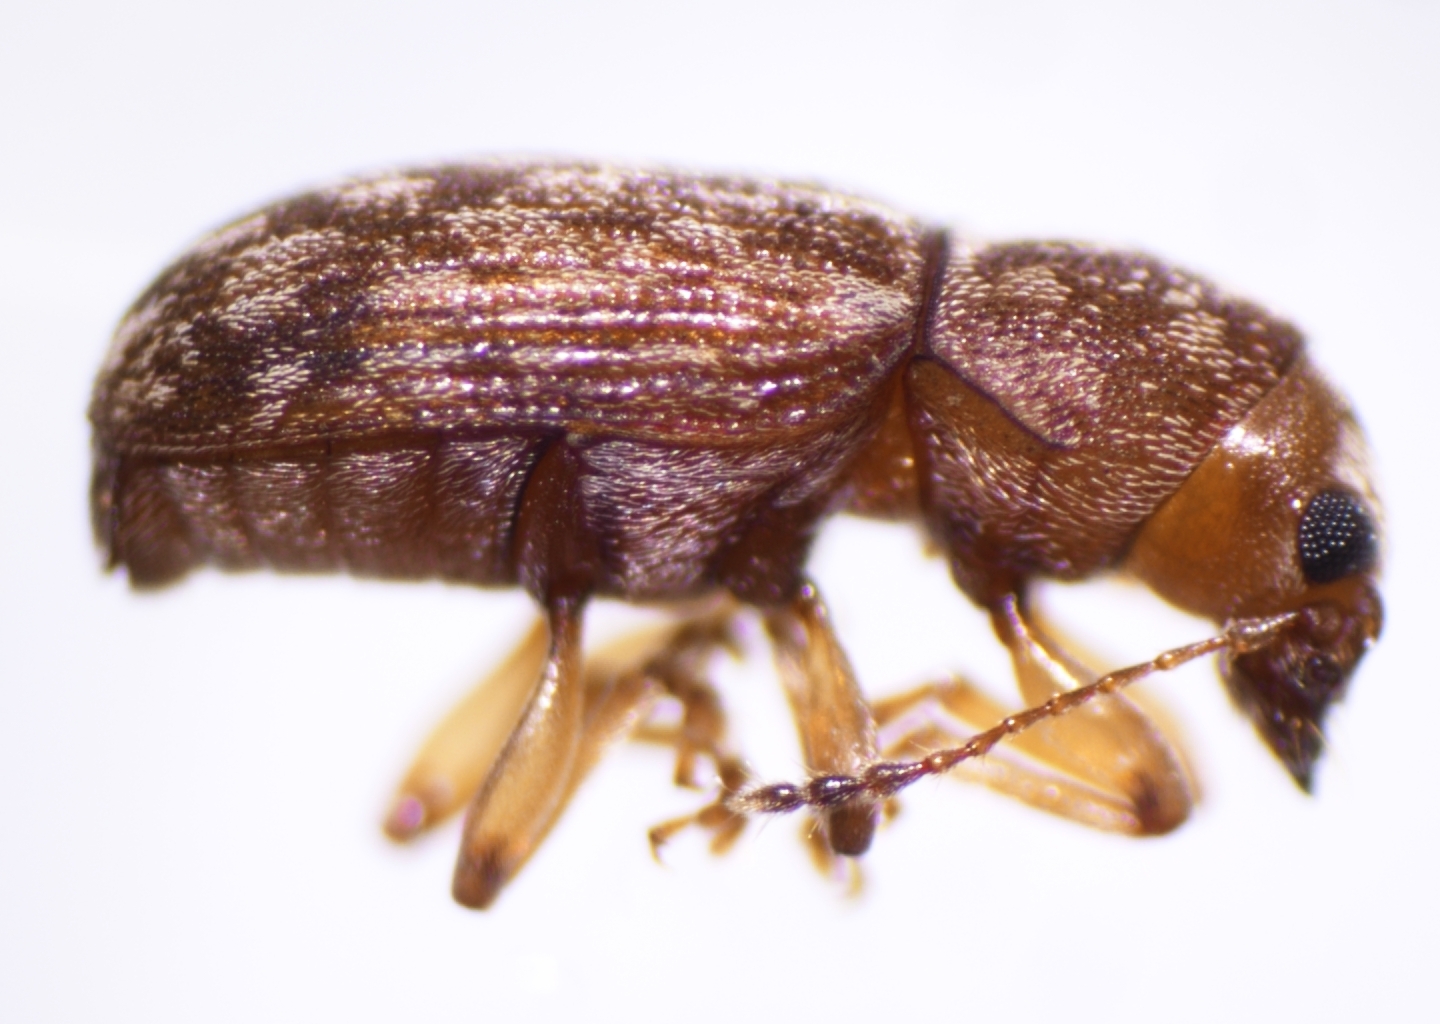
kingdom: Animalia
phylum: Arthropoda
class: Insecta
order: Coleoptera
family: Anthribidae
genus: Mauia
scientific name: Mauia subnotata
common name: Fungus weevil
